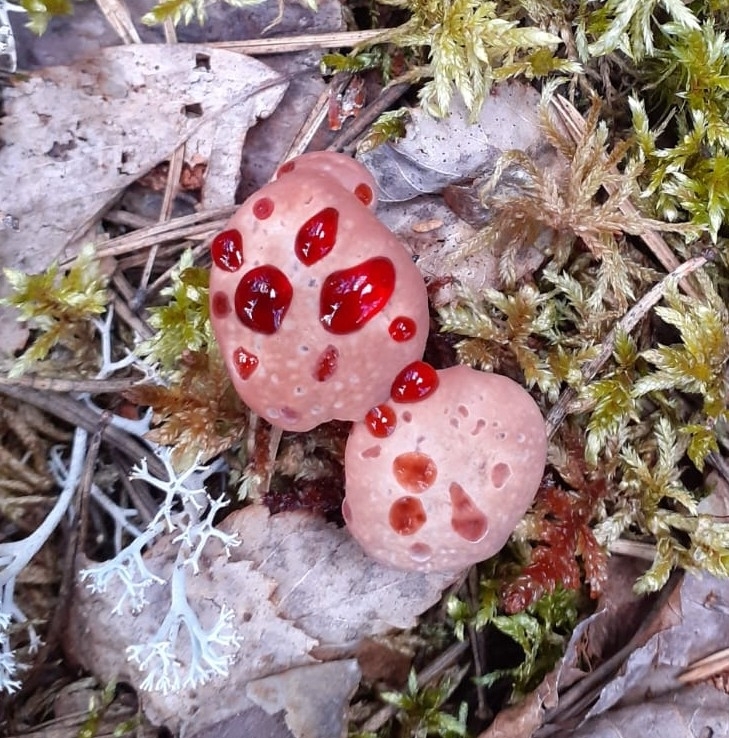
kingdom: Fungi
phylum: Basidiomycota
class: Agaricomycetes
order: Thelephorales
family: Bankeraceae
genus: Hydnellum
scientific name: Hydnellum peckii
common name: Devil's tooth
